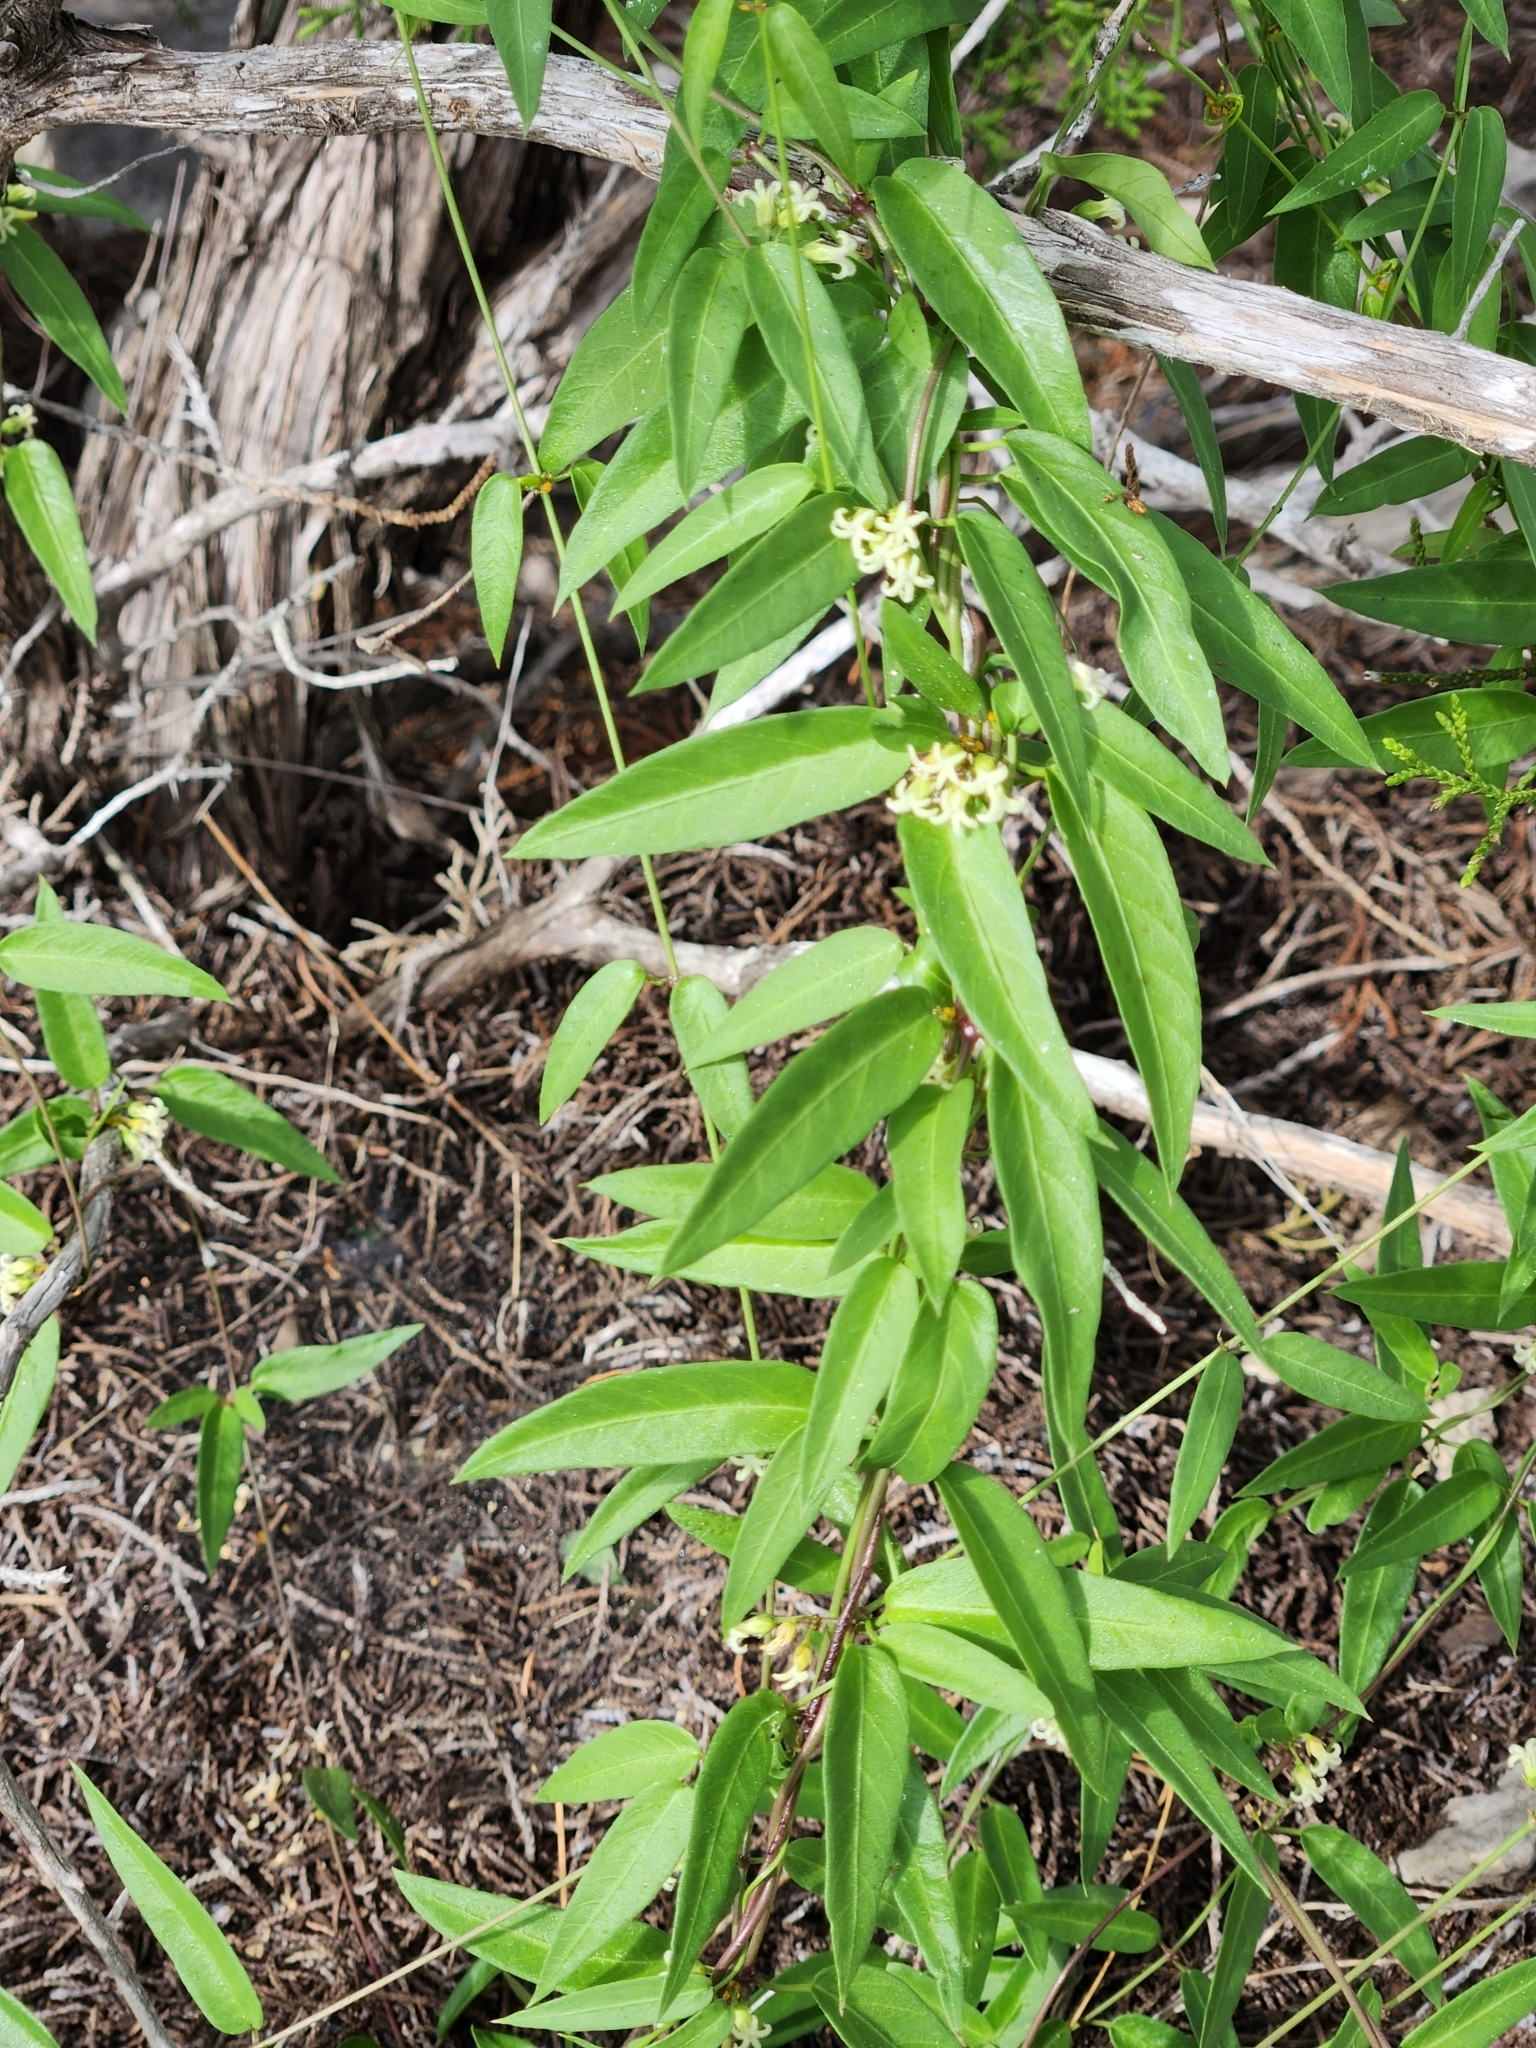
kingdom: Plantae
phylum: Tracheophyta
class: Magnoliopsida
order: Gentianales
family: Apocynaceae
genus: Metastelma
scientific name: Metastelma barbigerum
